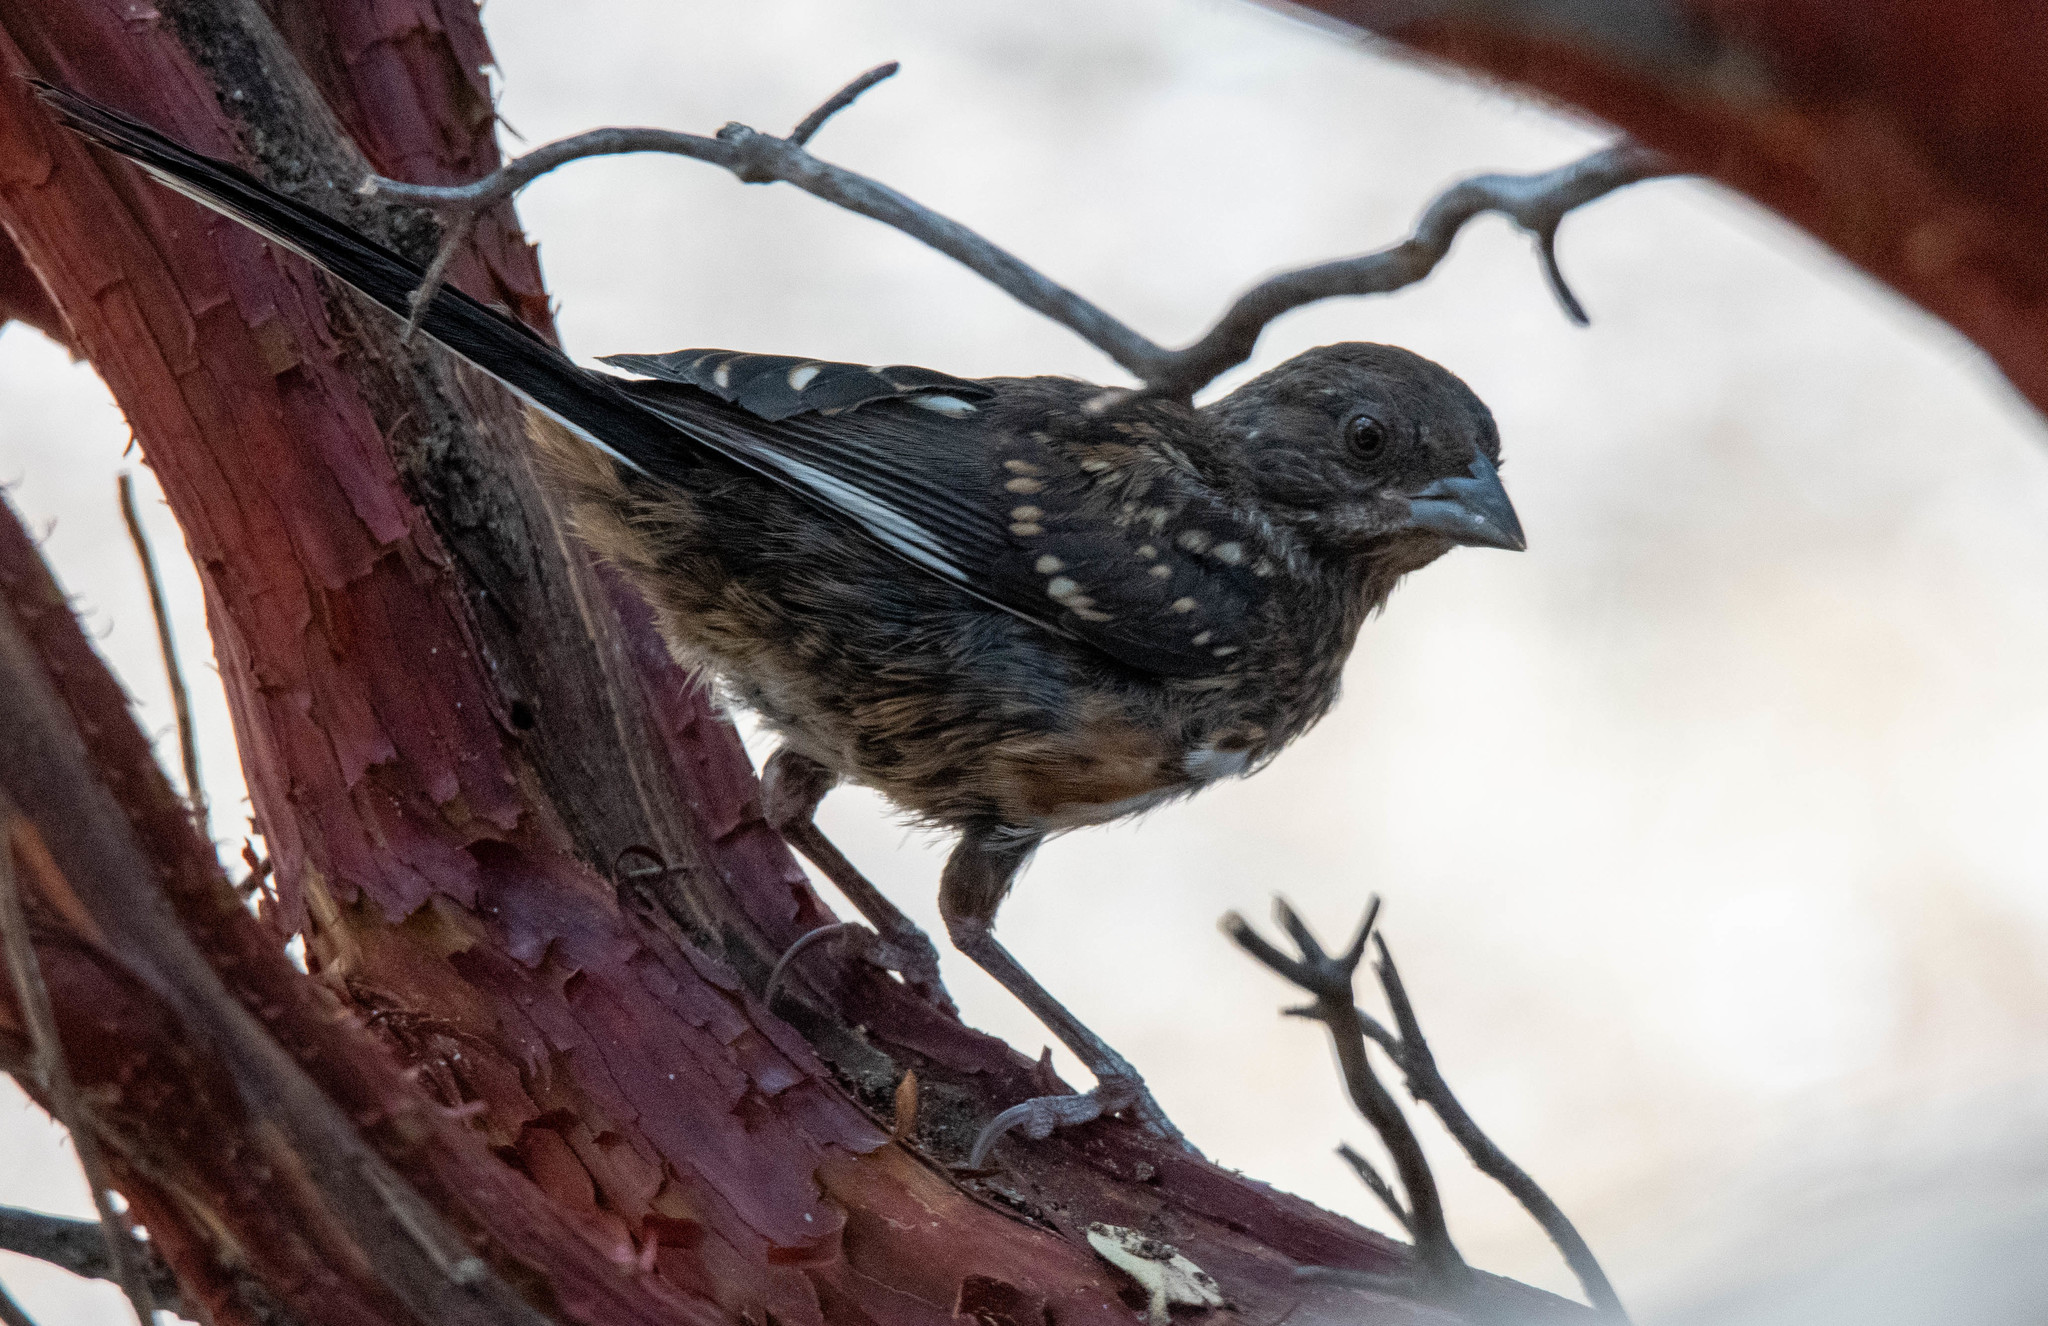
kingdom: Animalia
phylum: Chordata
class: Aves
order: Passeriformes
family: Passerellidae
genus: Pipilo
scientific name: Pipilo maculatus
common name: Spotted towhee
